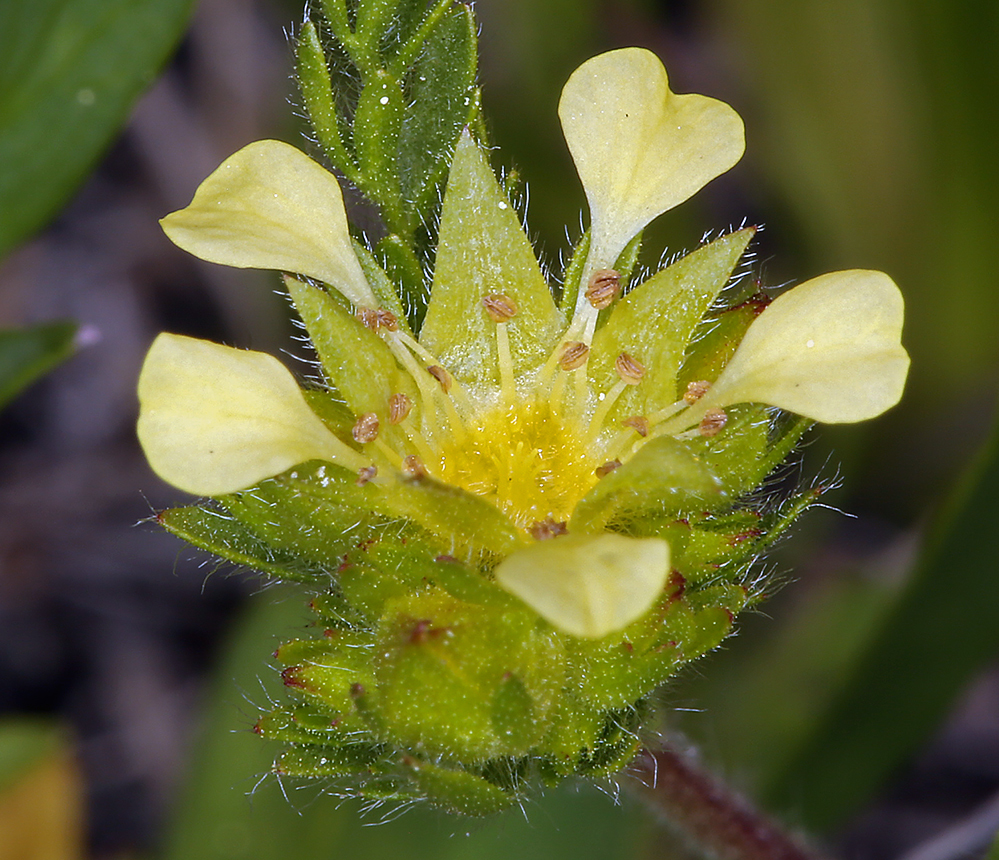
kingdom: Plantae
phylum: Tracheophyta
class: Magnoliopsida
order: Rosales
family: Rosaceae
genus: Potentilla
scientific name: Potentilla campestris
